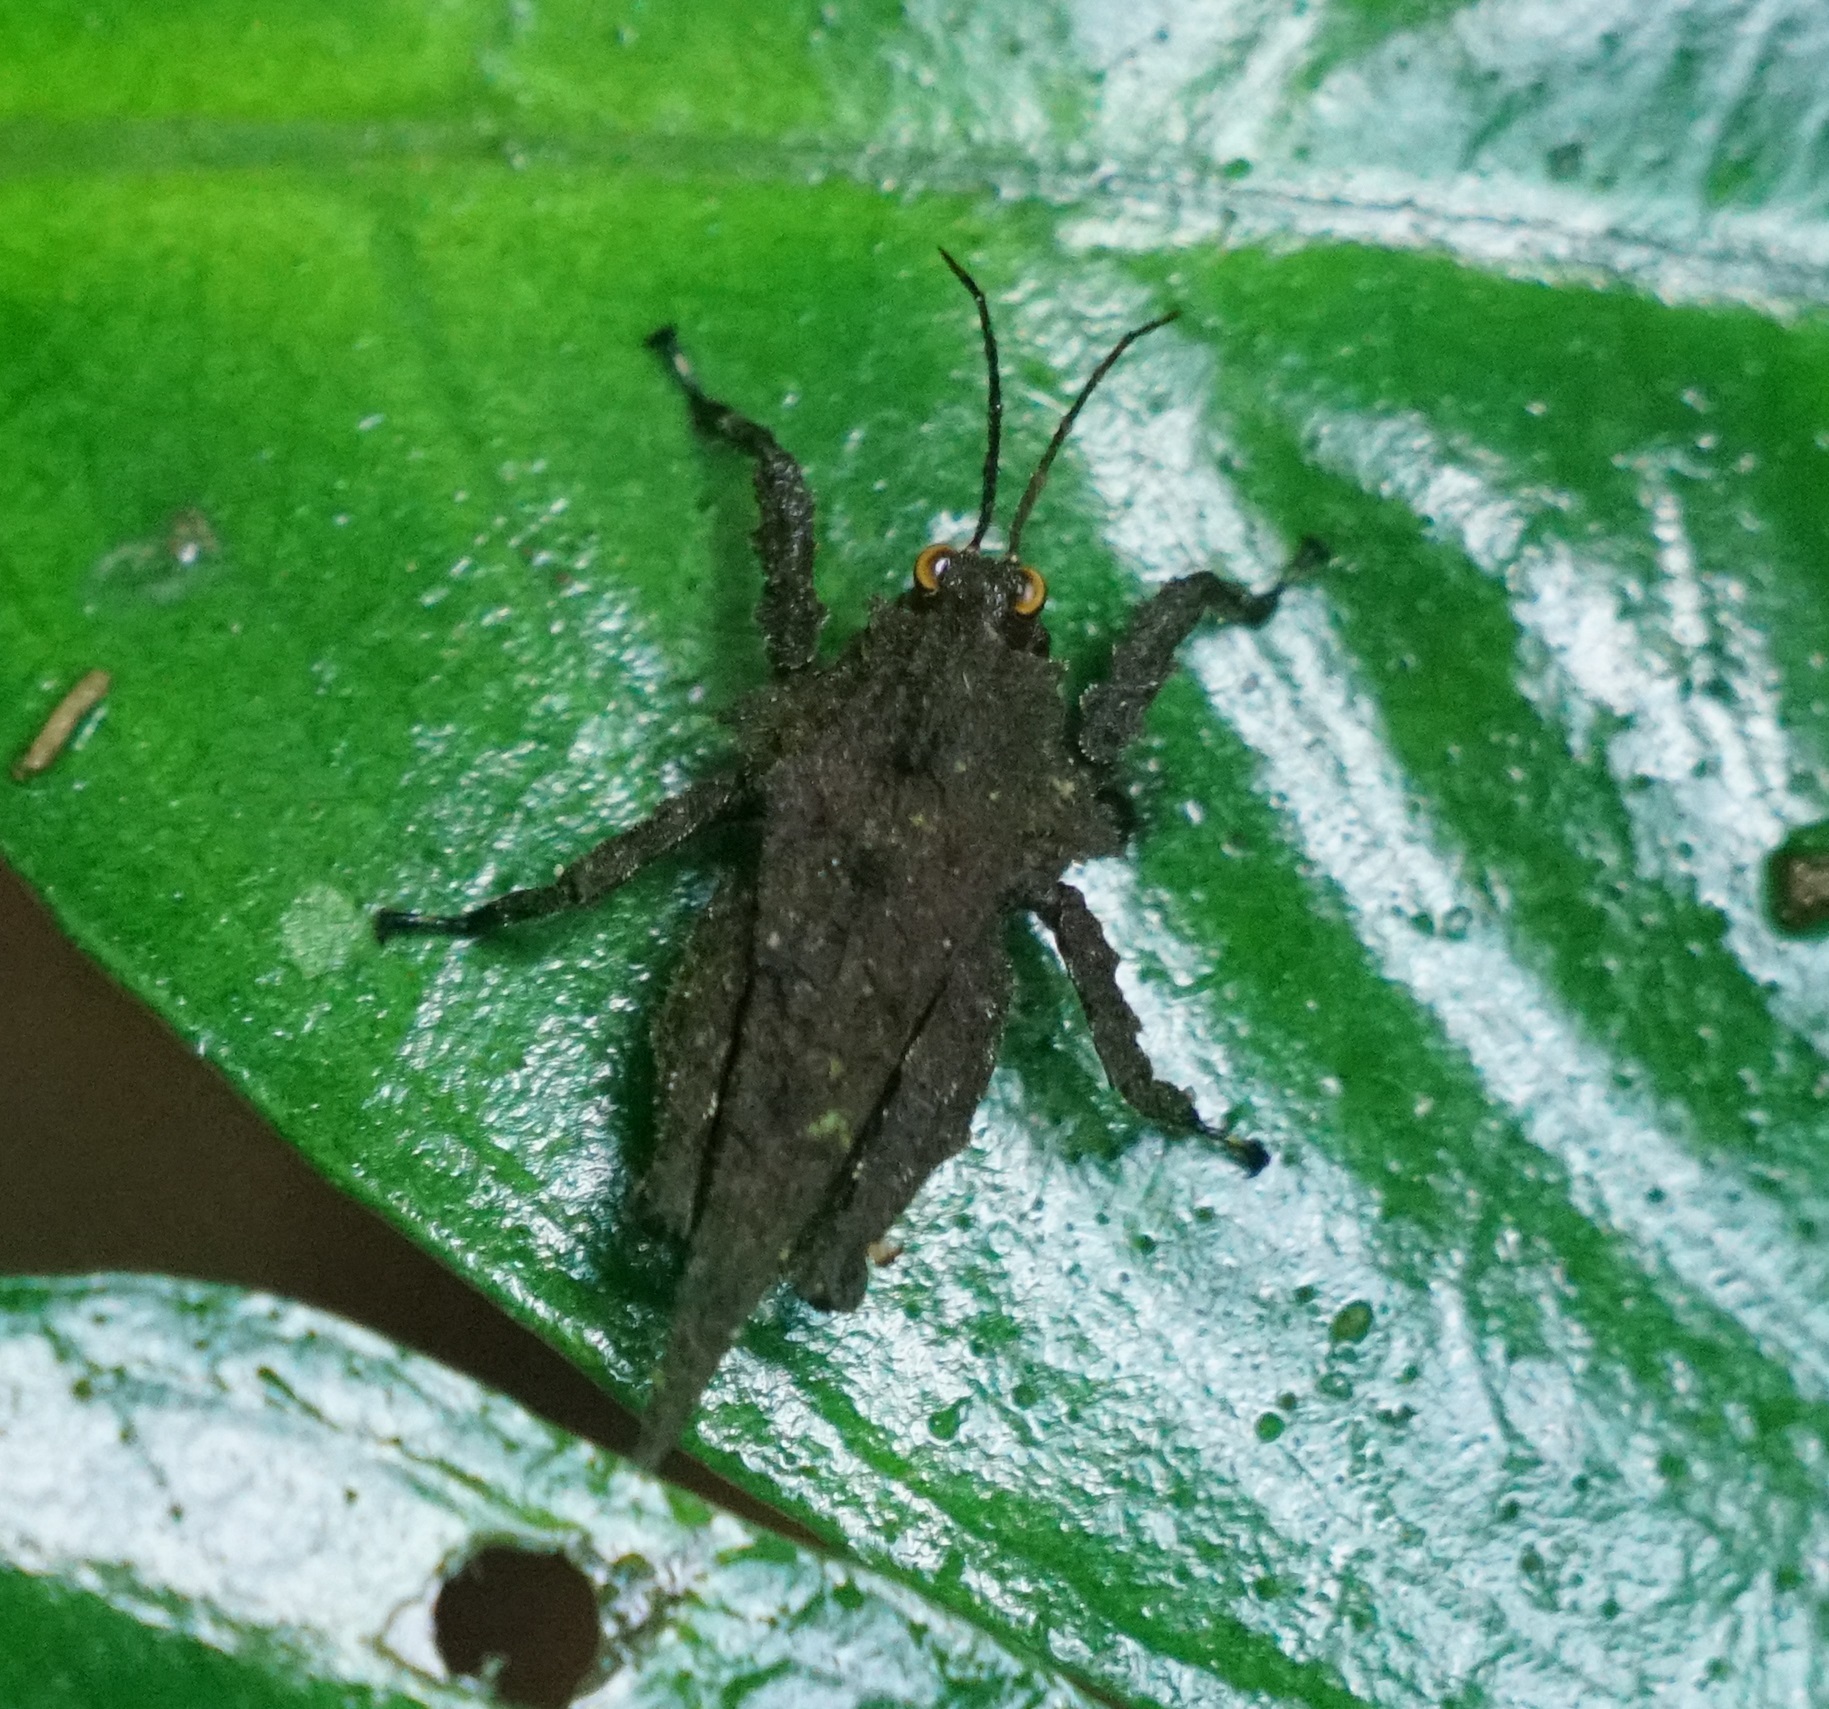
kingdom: Animalia
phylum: Arthropoda
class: Insecta
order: Orthoptera
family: Tetrigidae
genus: Discotettix
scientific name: Discotettix kirscheyi
